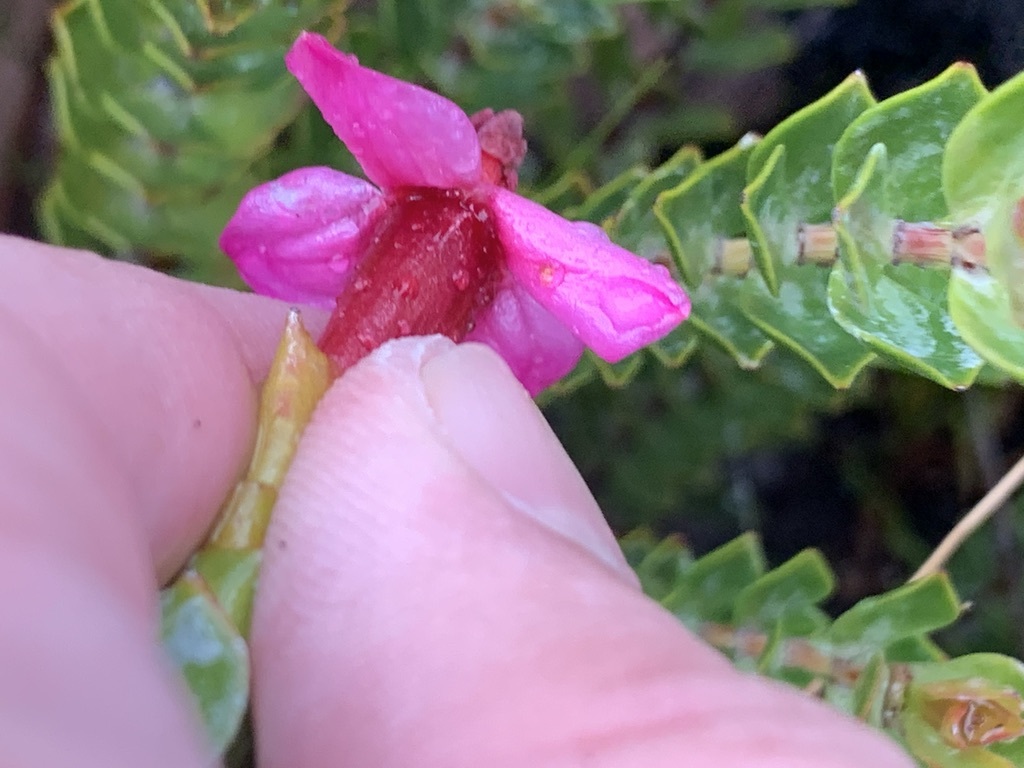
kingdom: Plantae
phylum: Tracheophyta
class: Magnoliopsida
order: Myrtales
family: Penaeaceae
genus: Saltera
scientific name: Saltera sarcocolla
